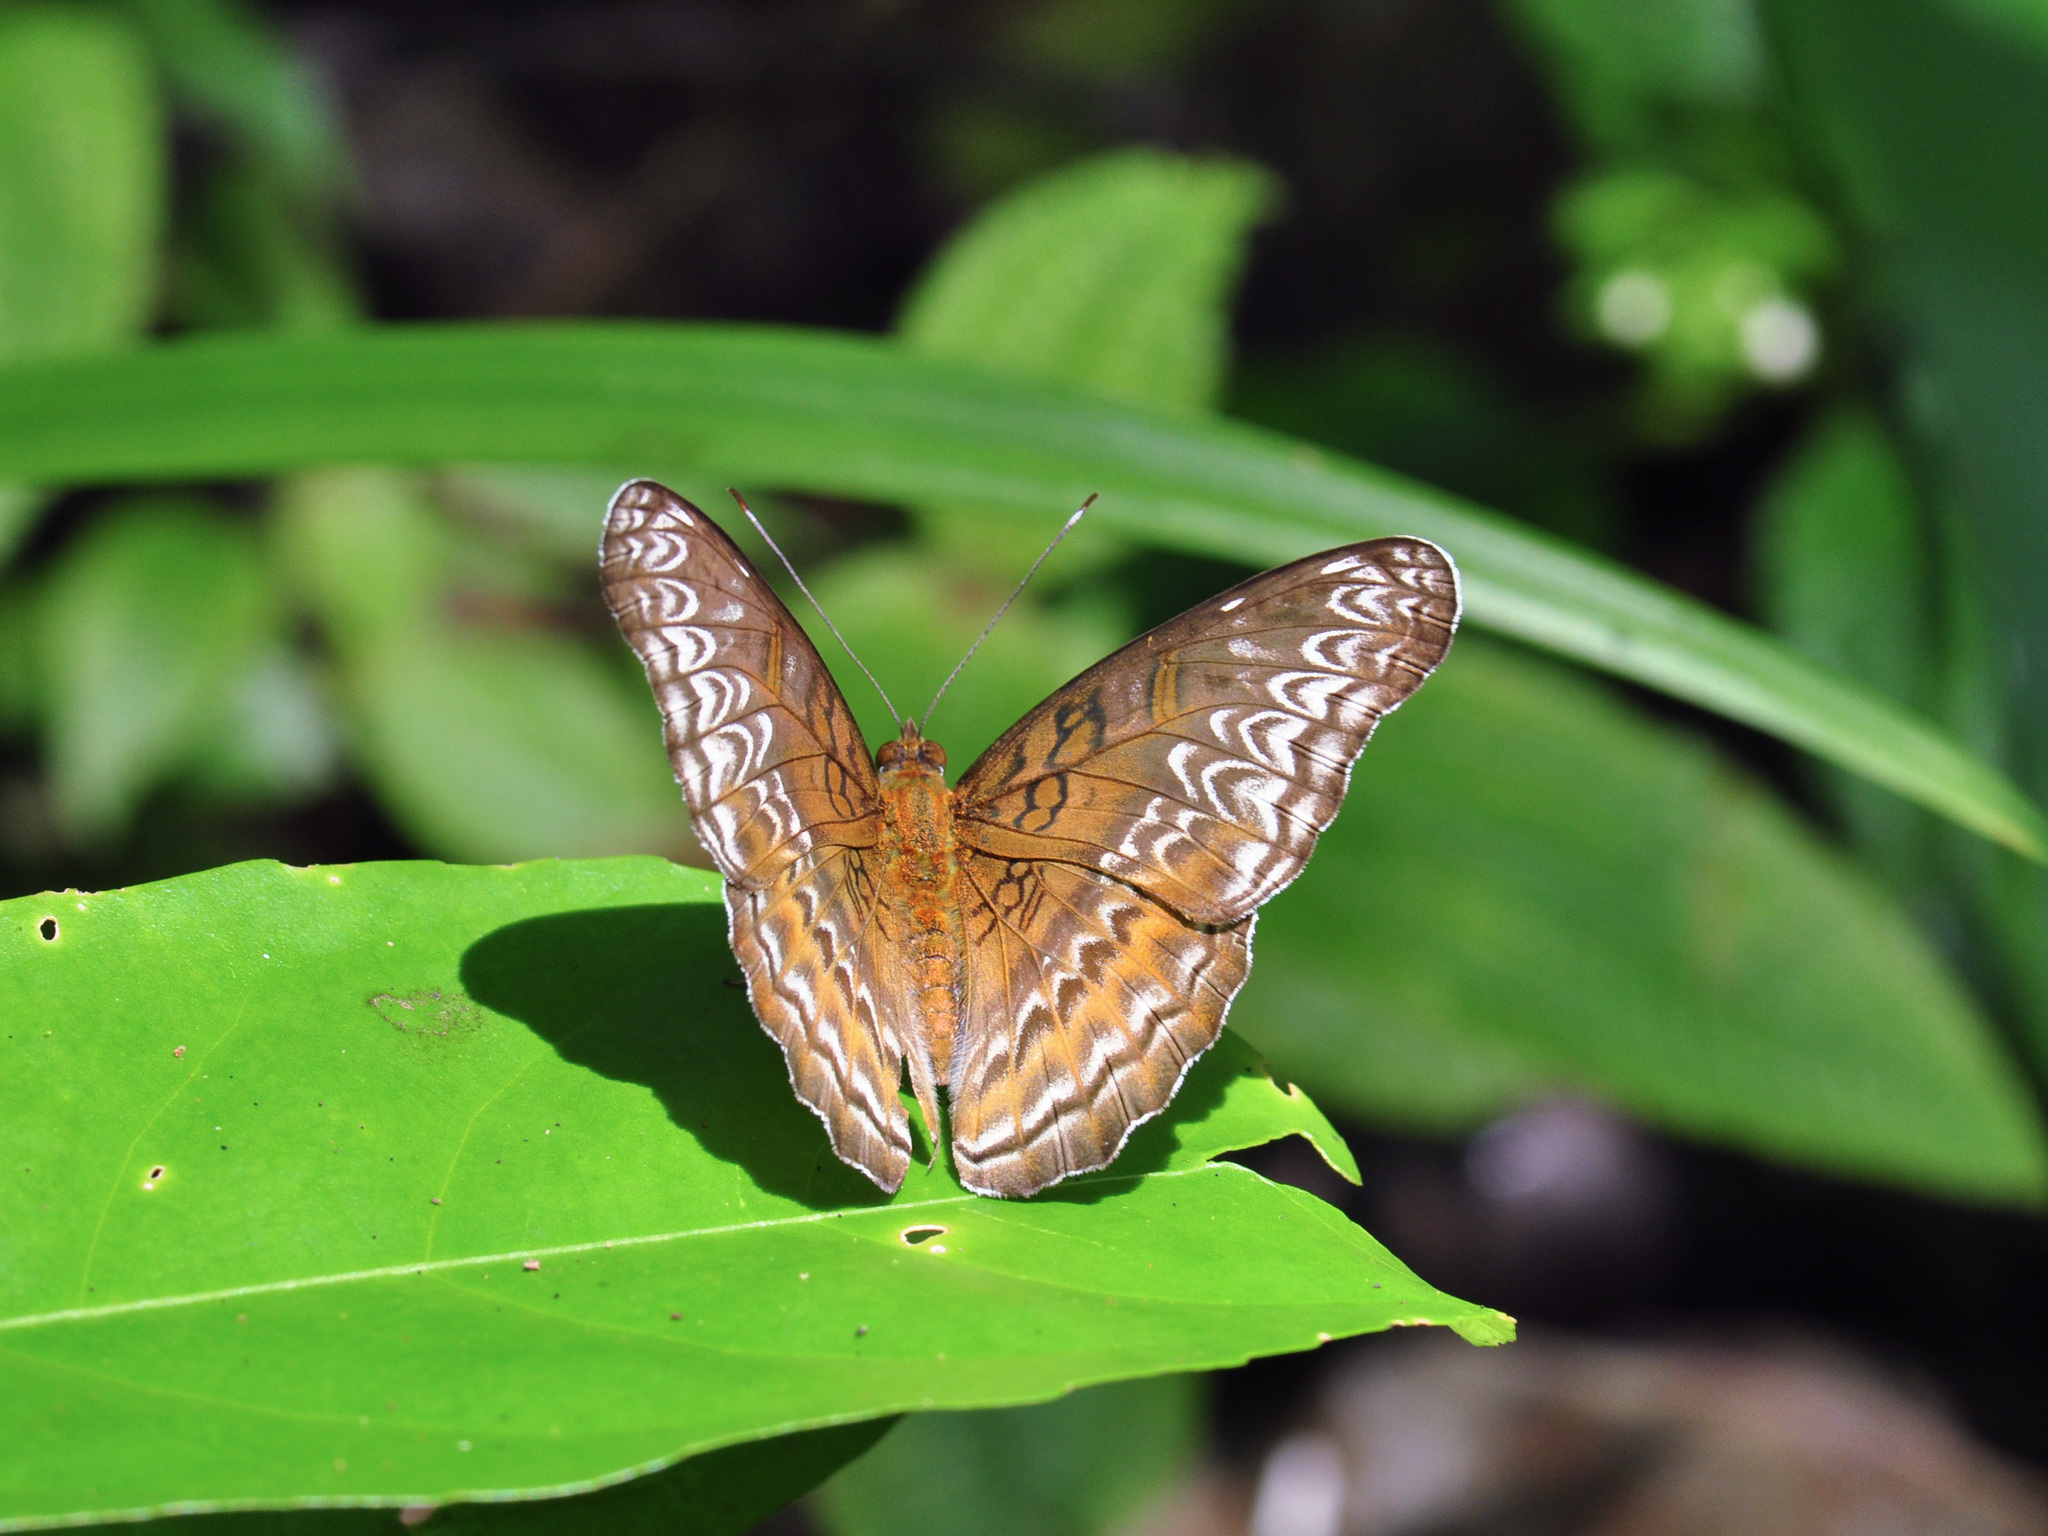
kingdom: Animalia
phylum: Arthropoda
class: Insecta
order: Lepidoptera
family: Nymphalidae
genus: Lebadea
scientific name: Lebadea martha
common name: Knight
